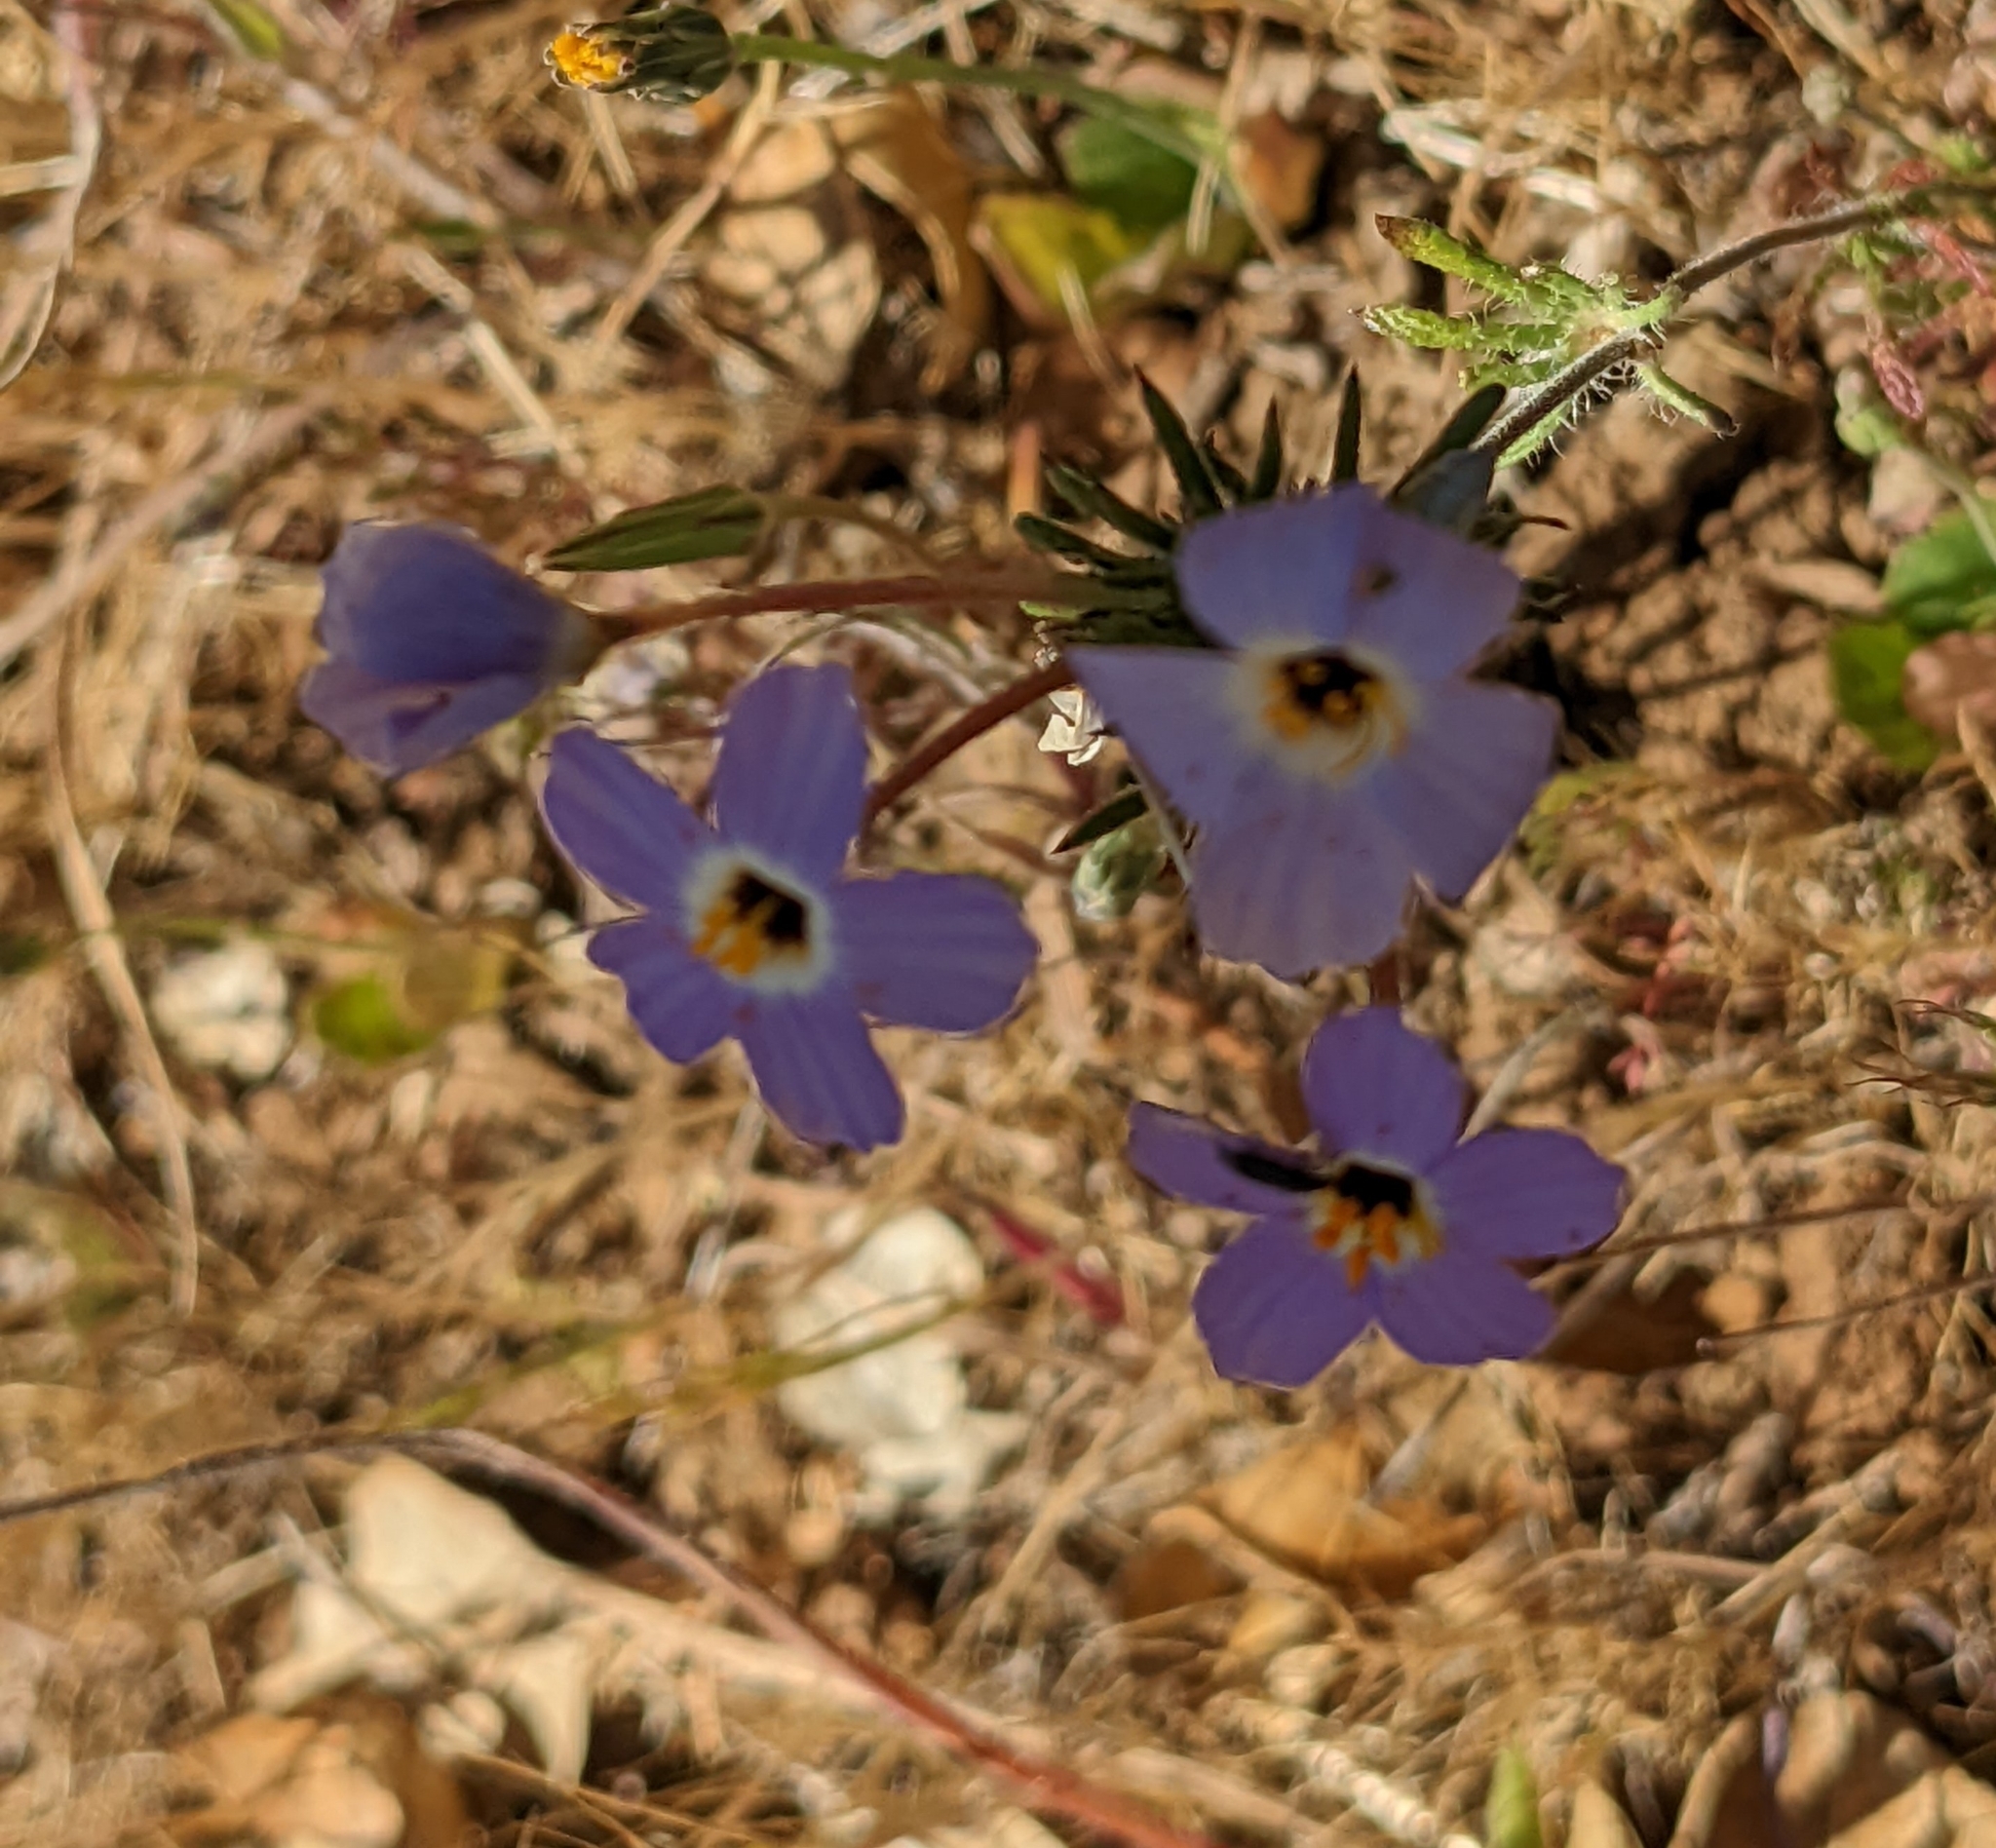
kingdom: Plantae
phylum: Tracheophyta
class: Magnoliopsida
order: Ericales
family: Polemoniaceae
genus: Leptosiphon
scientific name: Leptosiphon androsaceus
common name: False babystars
